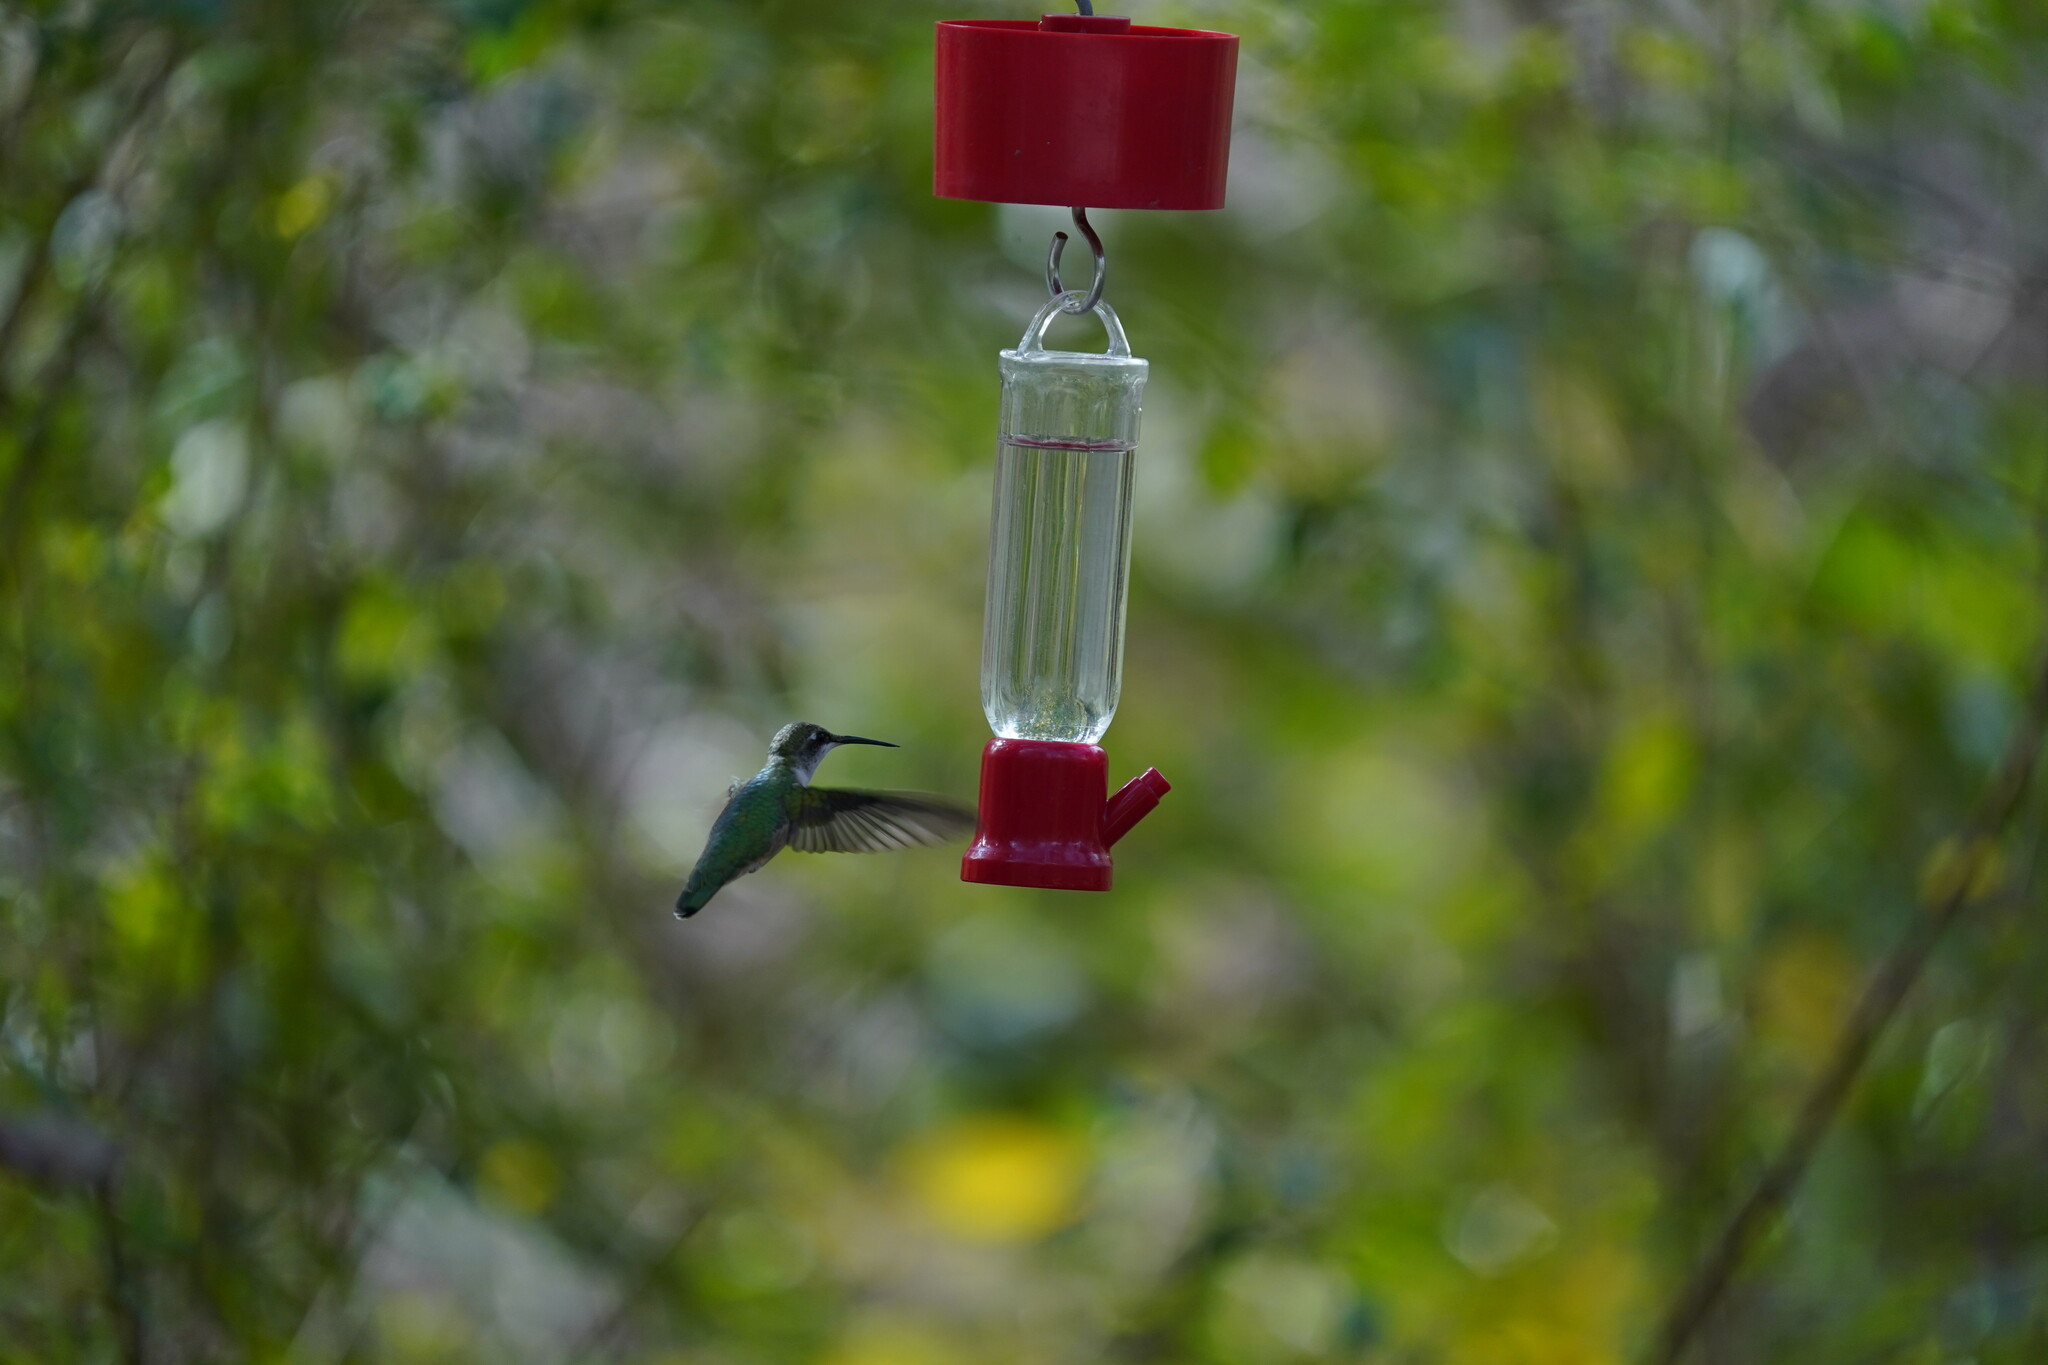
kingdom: Animalia
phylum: Chordata
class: Aves
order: Apodiformes
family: Trochilidae
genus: Archilochus
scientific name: Archilochus colubris
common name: Ruby-throated hummingbird
